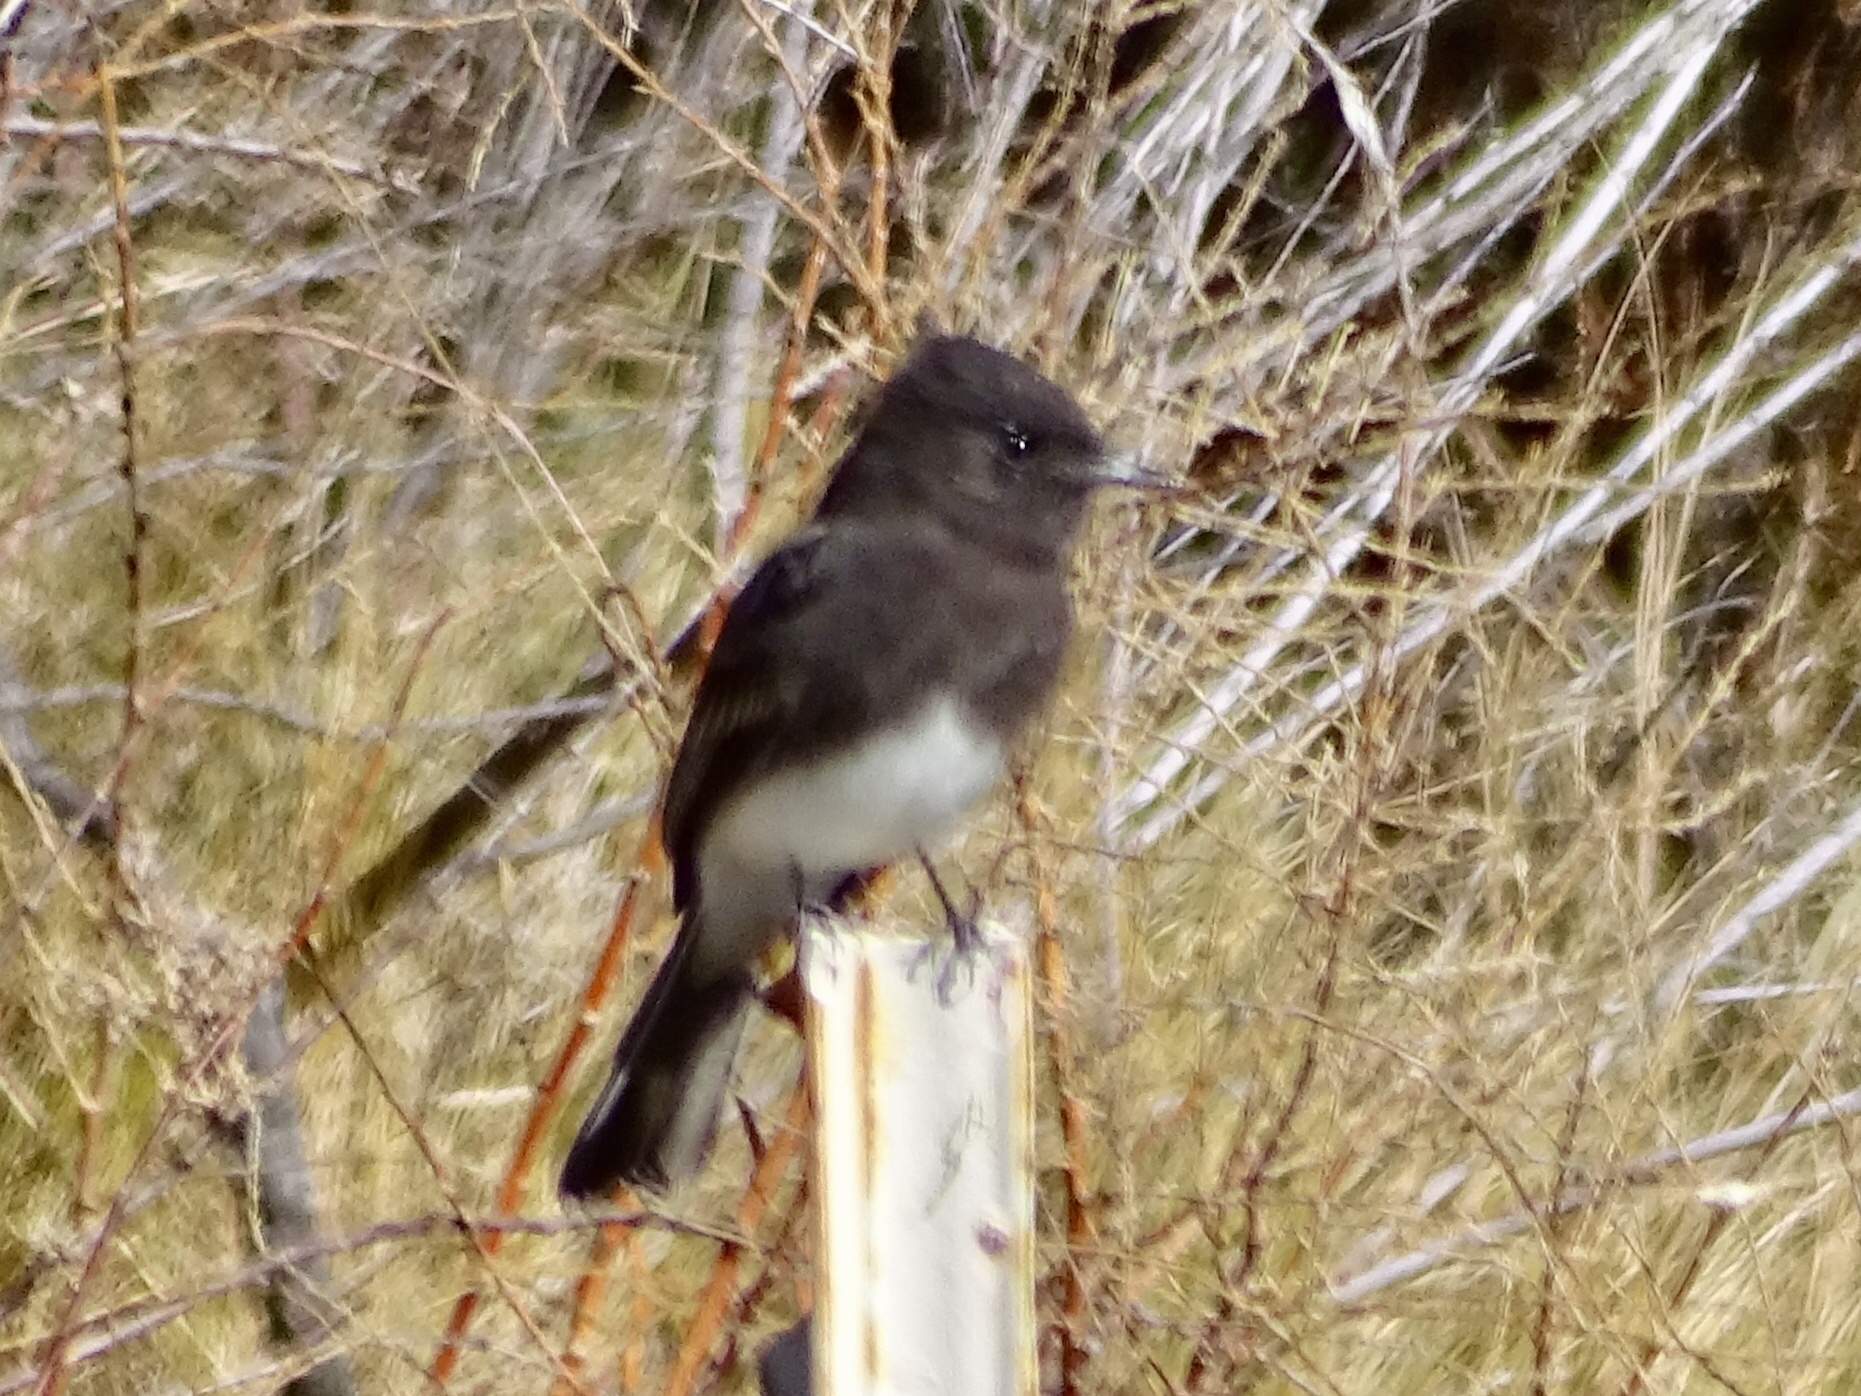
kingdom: Animalia
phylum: Chordata
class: Aves
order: Passeriformes
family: Tyrannidae
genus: Sayornis
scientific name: Sayornis nigricans
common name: Black phoebe
